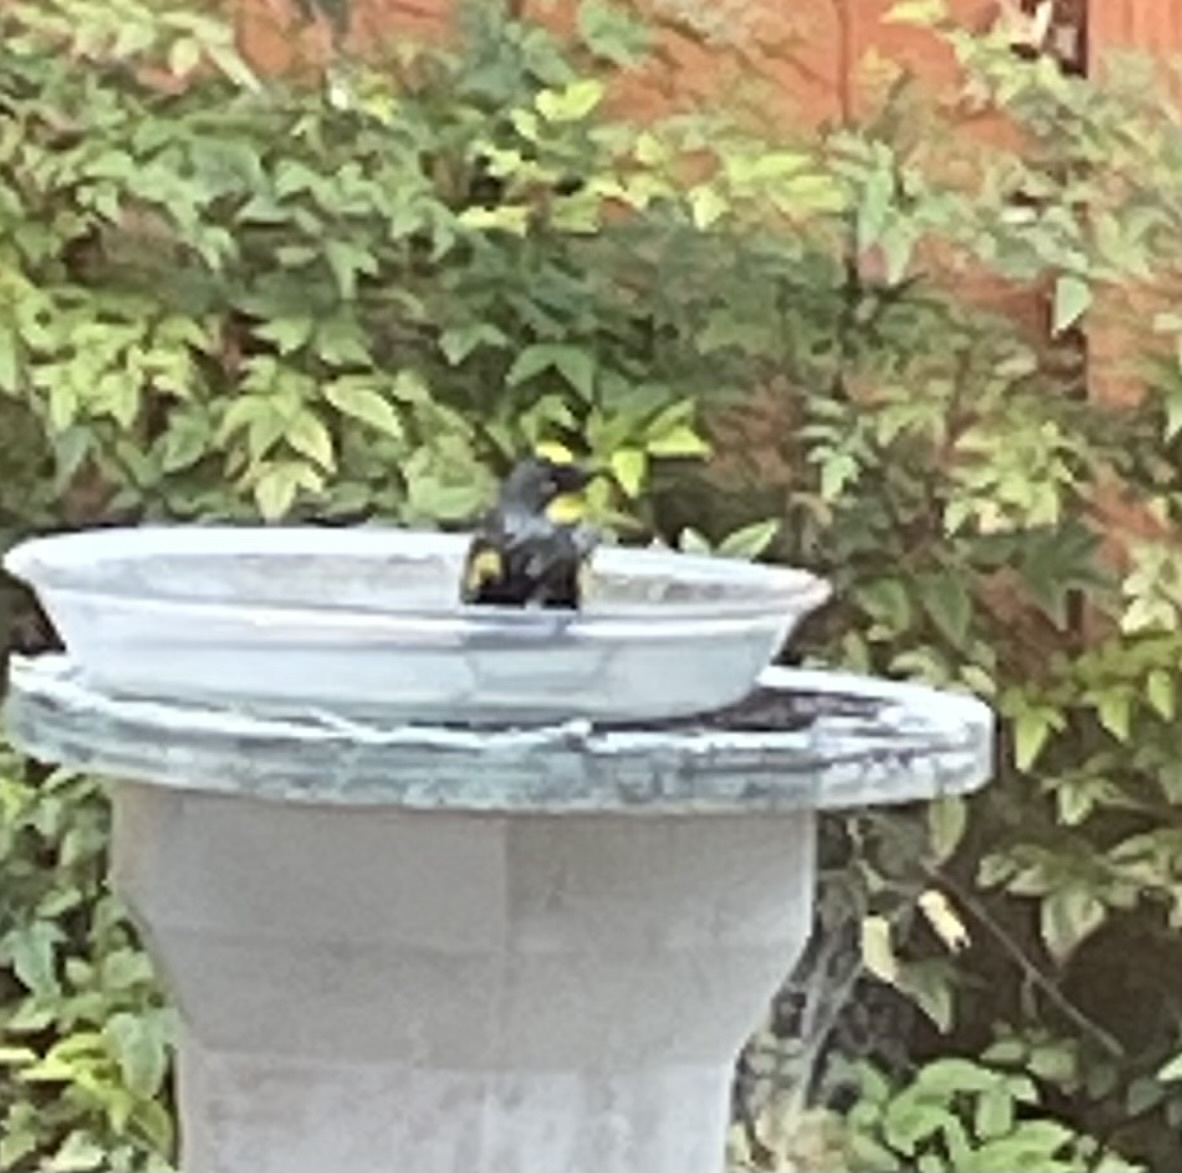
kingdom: Animalia
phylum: Chordata
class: Aves
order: Passeriformes
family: Parulidae
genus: Setophaga
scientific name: Setophaga coronata
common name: Myrtle warbler
